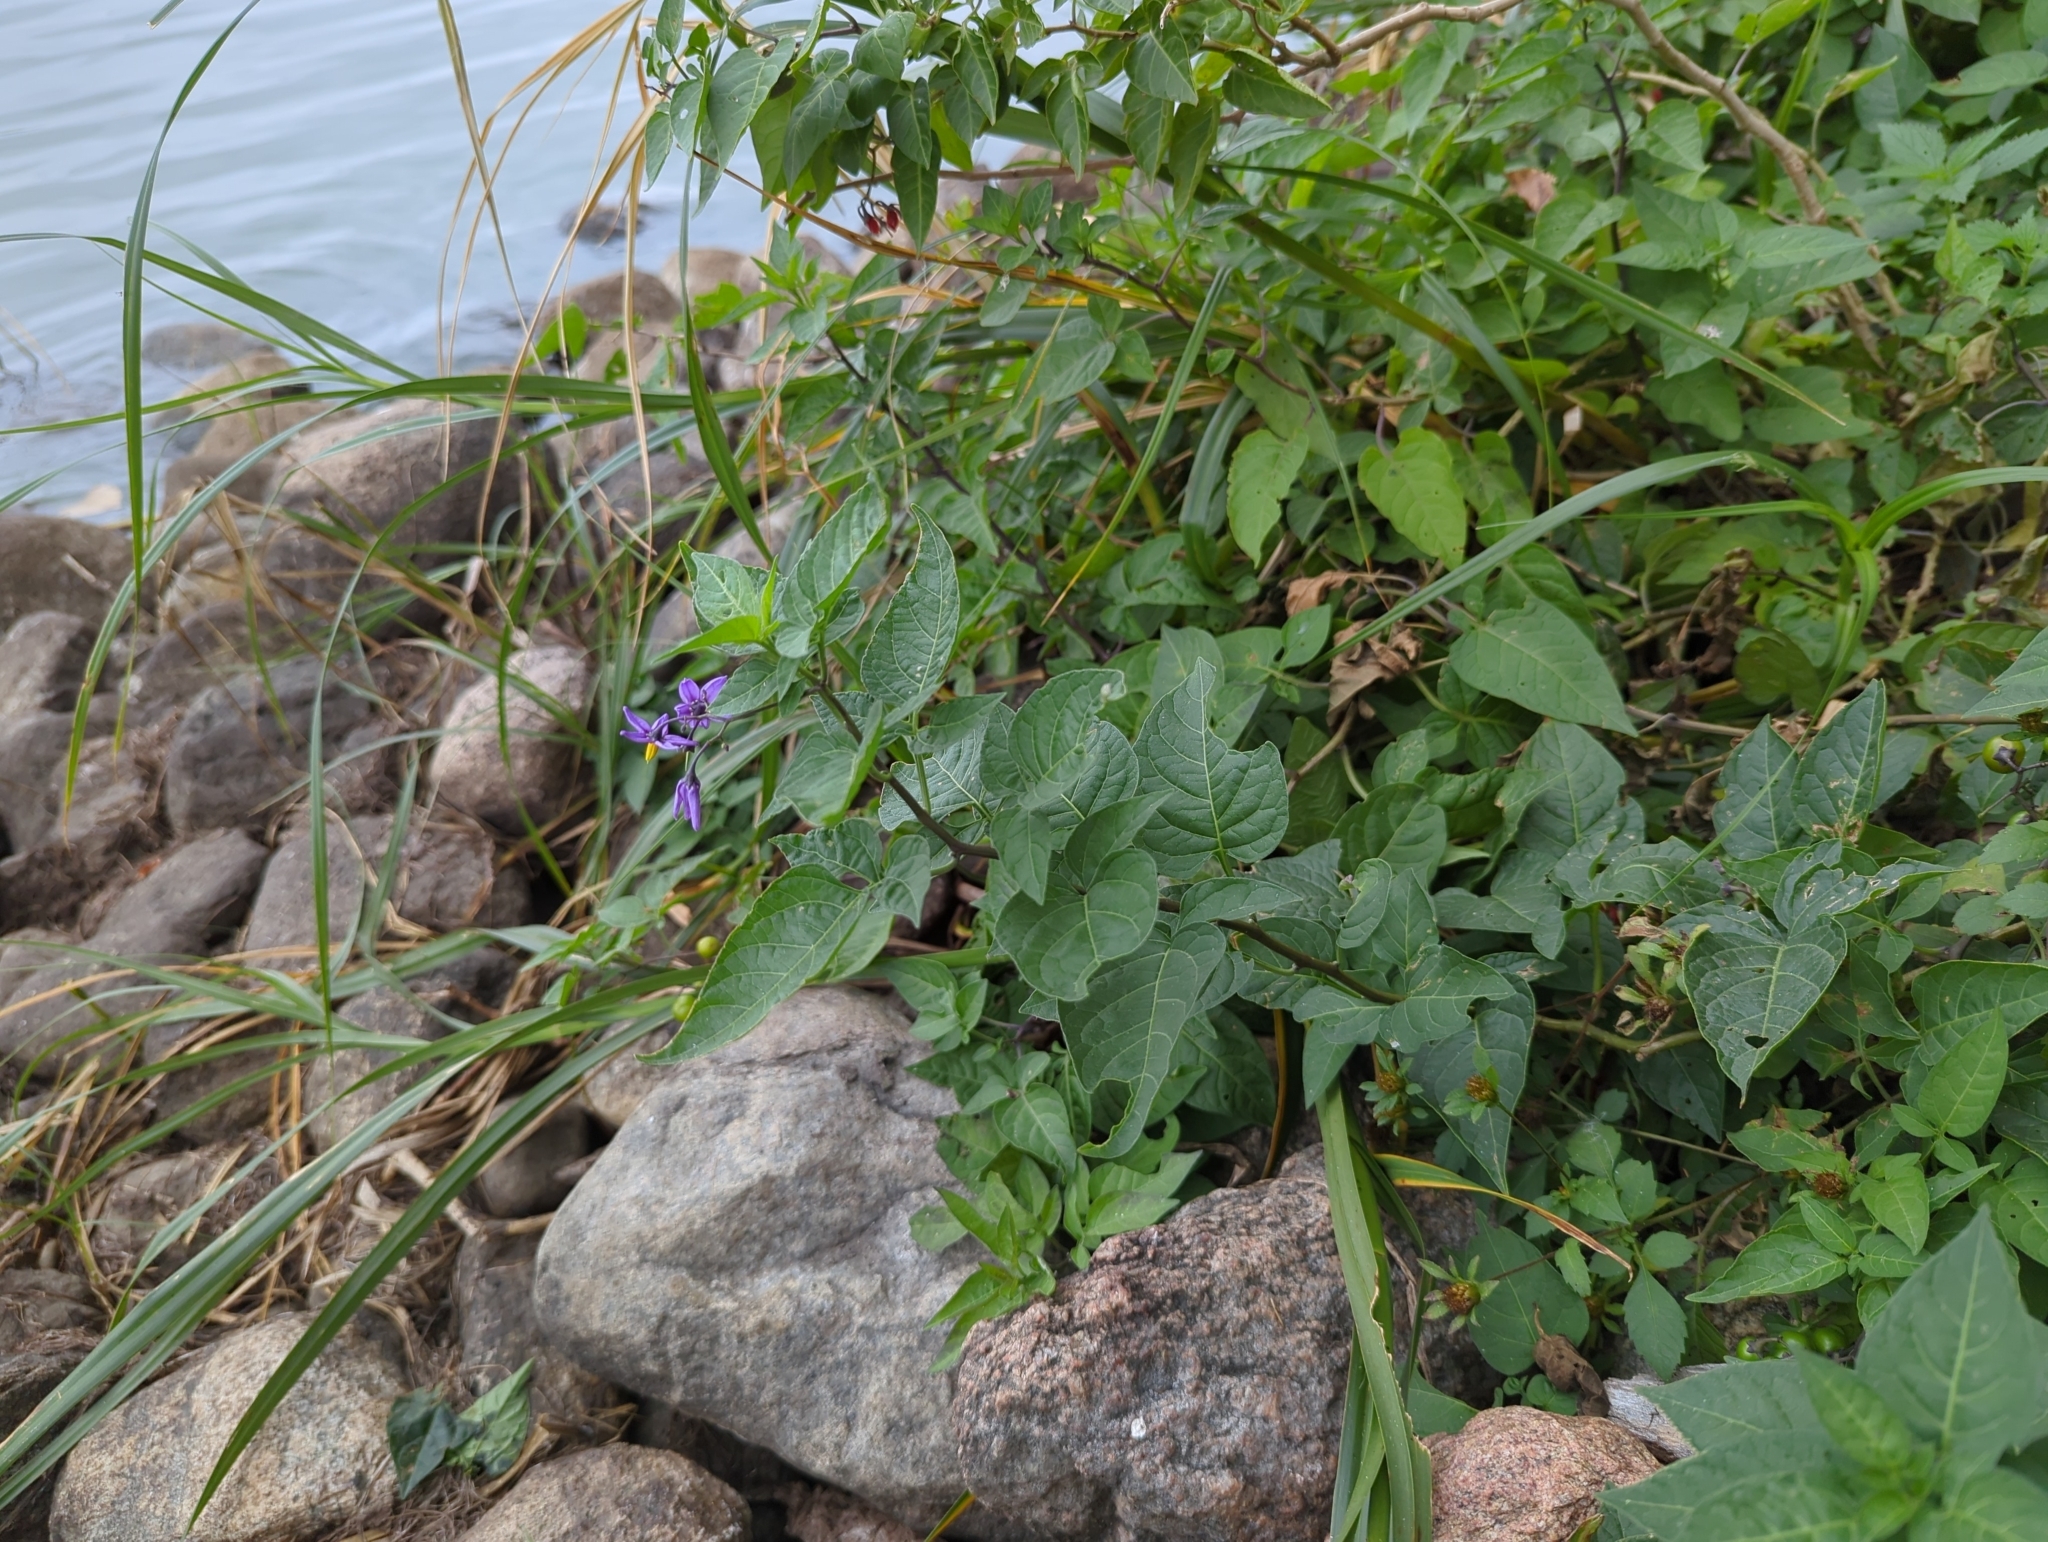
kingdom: Plantae
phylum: Tracheophyta
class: Magnoliopsida
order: Solanales
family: Solanaceae
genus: Solanum
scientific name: Solanum dulcamara
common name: Climbing nightshade
